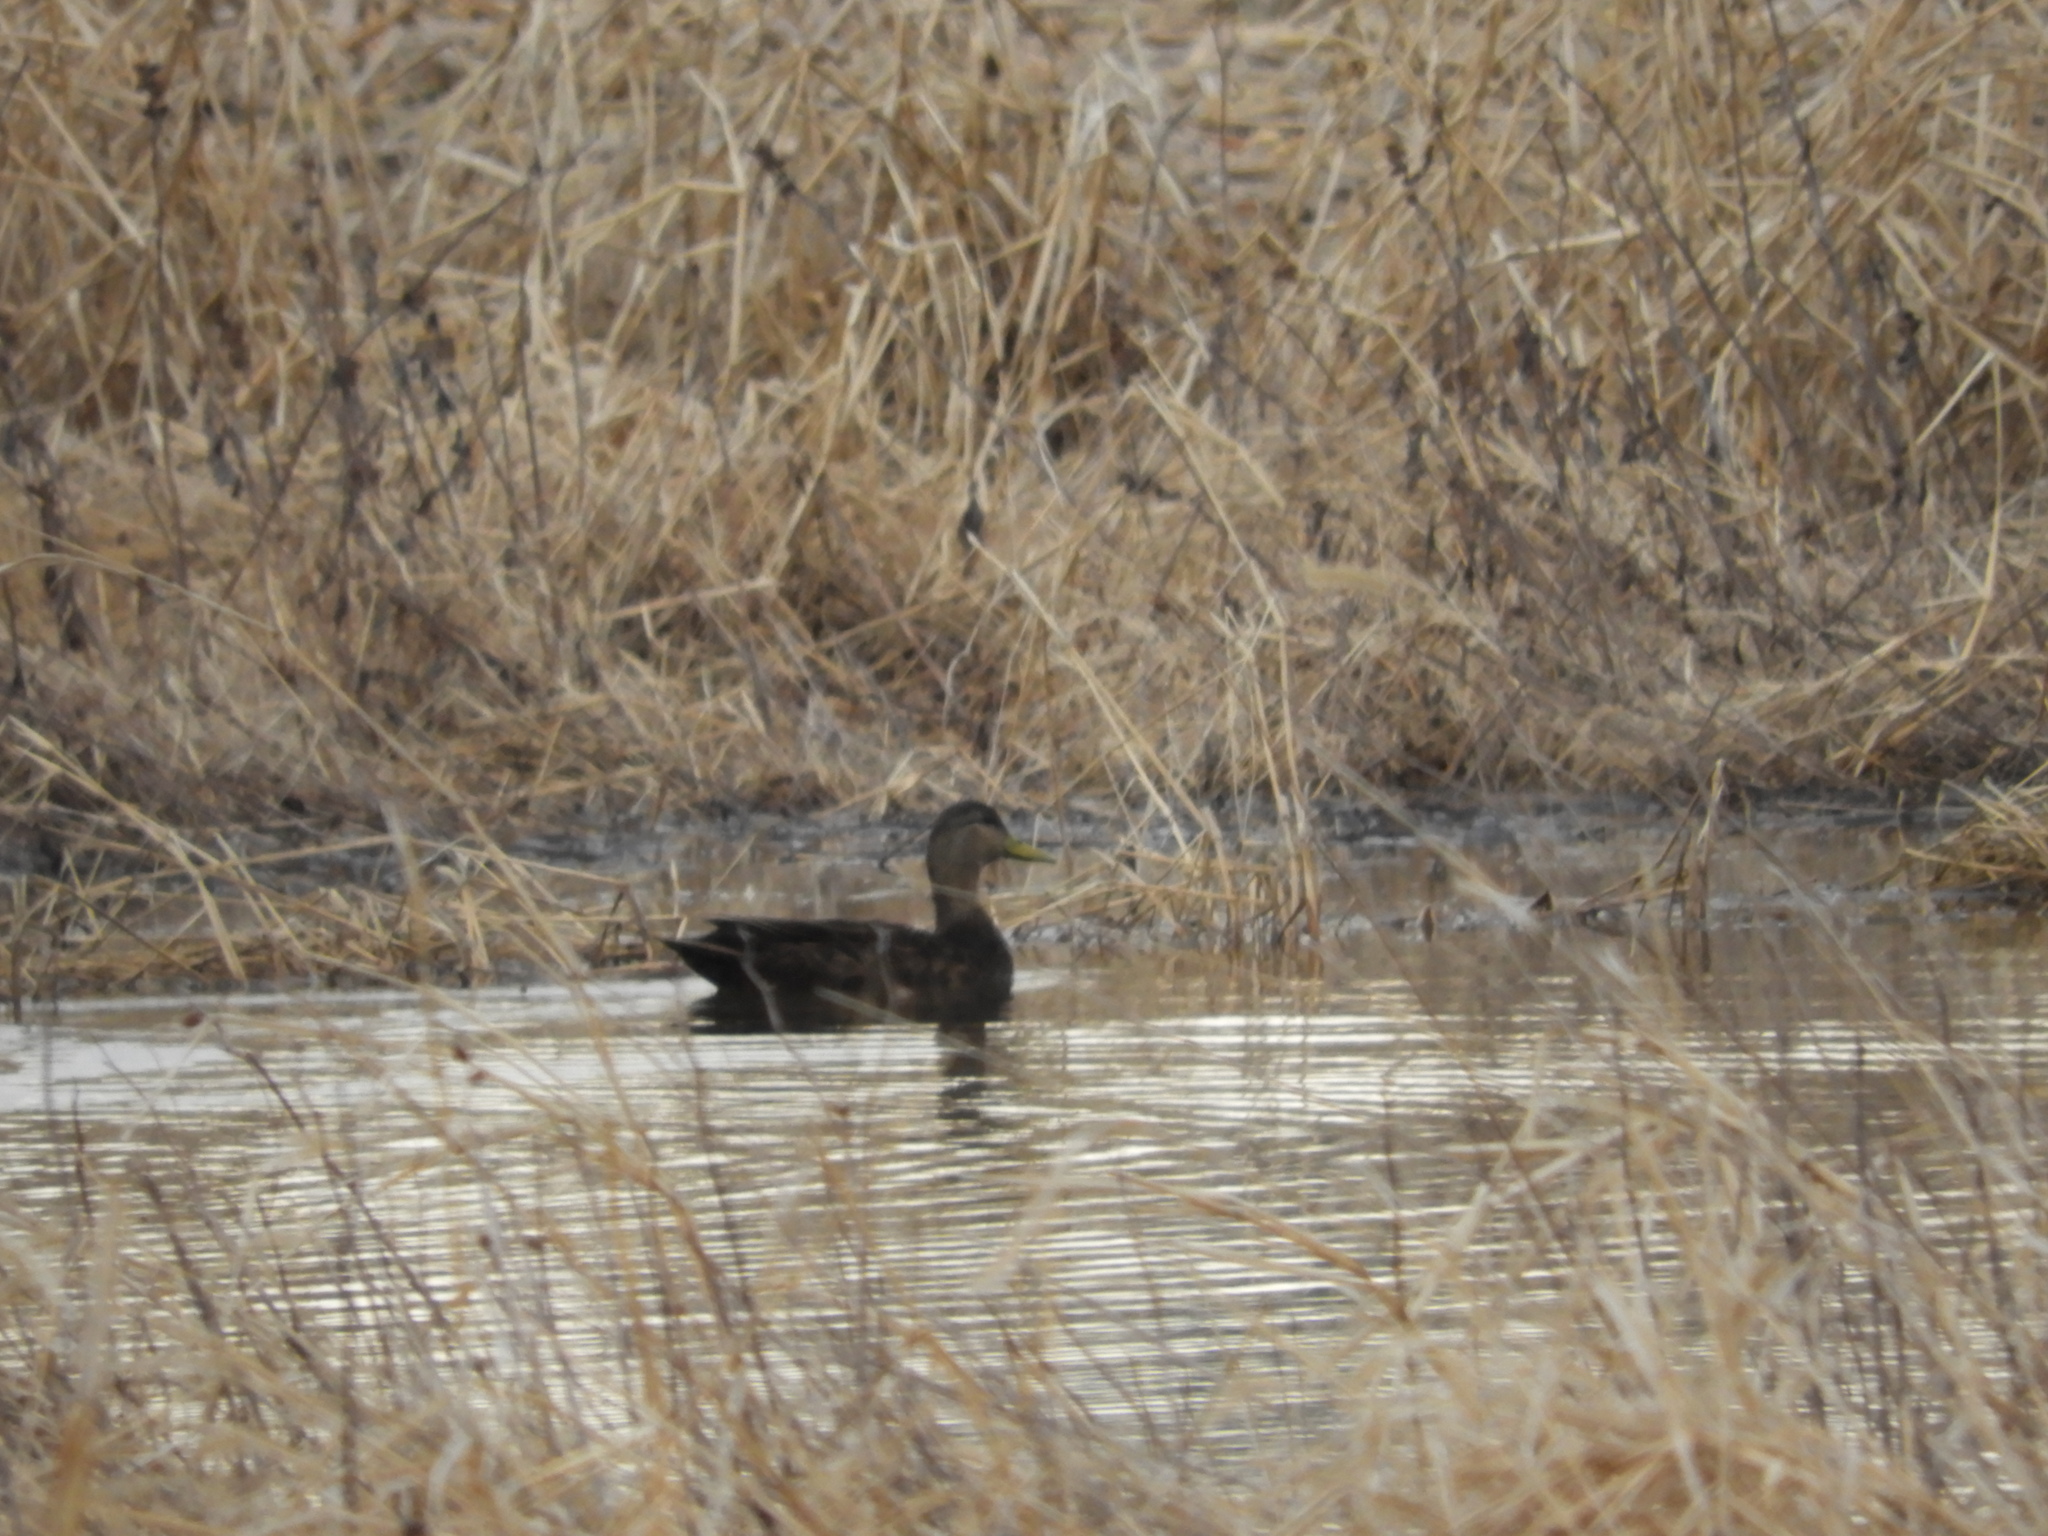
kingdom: Animalia
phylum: Chordata
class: Aves
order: Anseriformes
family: Anatidae
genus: Anas
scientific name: Anas rubripes
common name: American black duck
